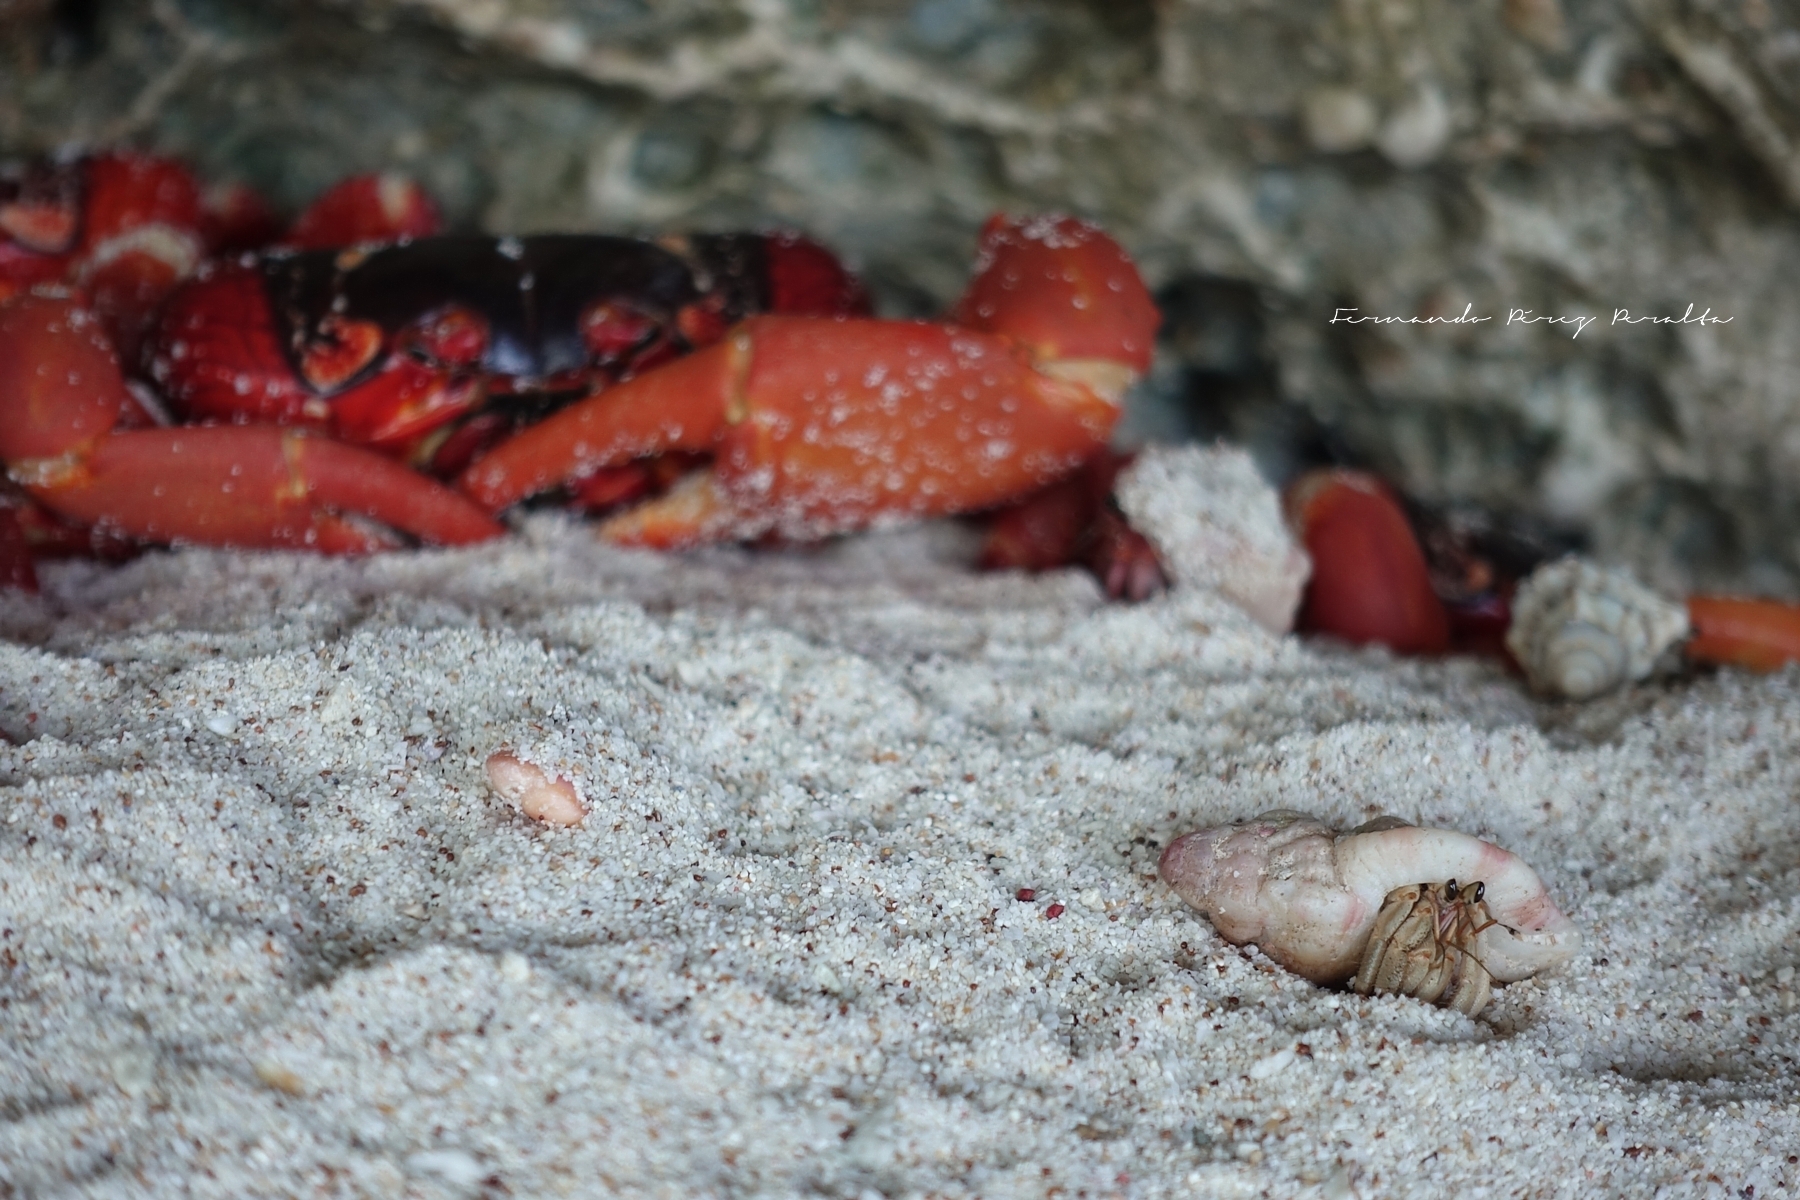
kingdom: Animalia
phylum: Arthropoda
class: Malacostraca
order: Decapoda
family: Coenobitidae
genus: Coenobita
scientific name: Coenobita rugosus
